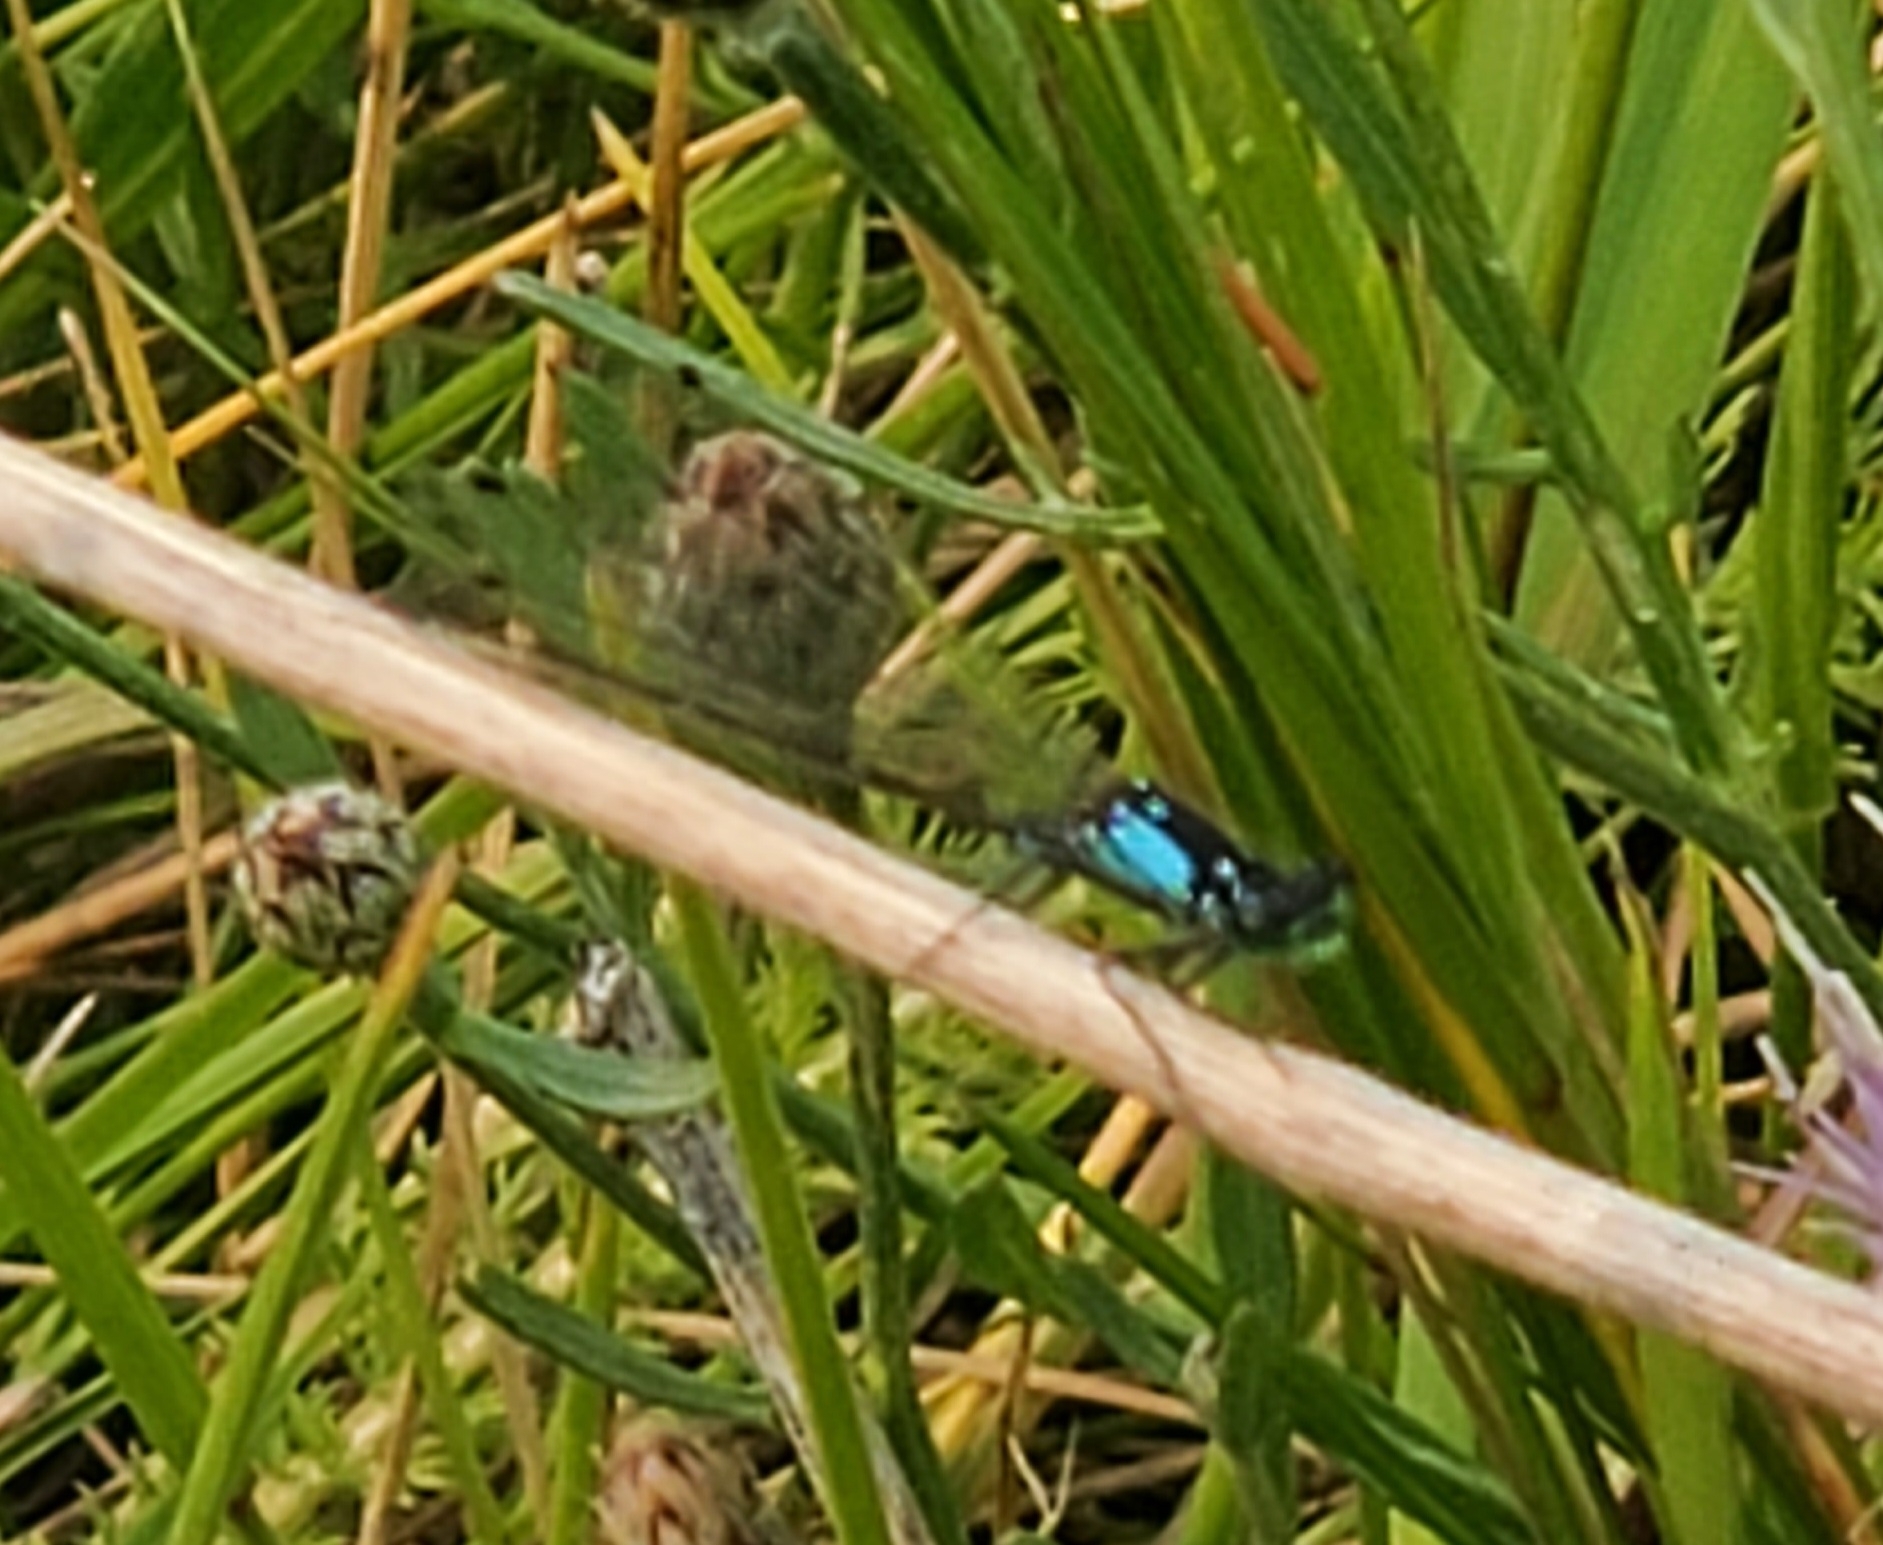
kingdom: Animalia
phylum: Arthropoda
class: Insecta
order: Odonata
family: Coenagrionidae
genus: Ischnura
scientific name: Ischnura cervula
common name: Pacific forktail
